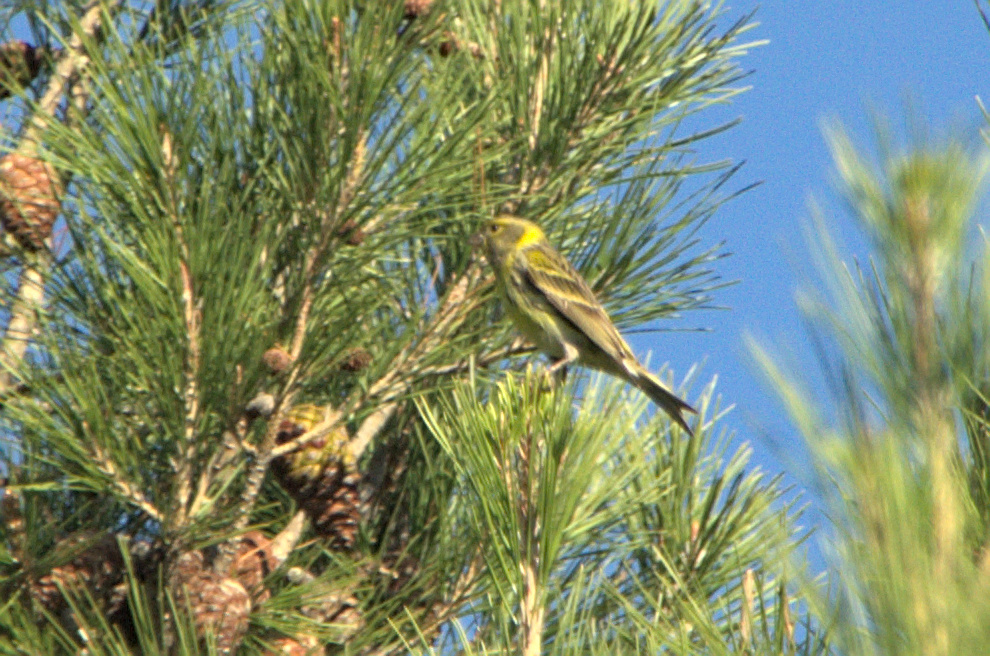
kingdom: Animalia
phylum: Chordata
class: Aves
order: Passeriformes
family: Fringillidae
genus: Serinus
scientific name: Serinus serinus
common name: European serin
